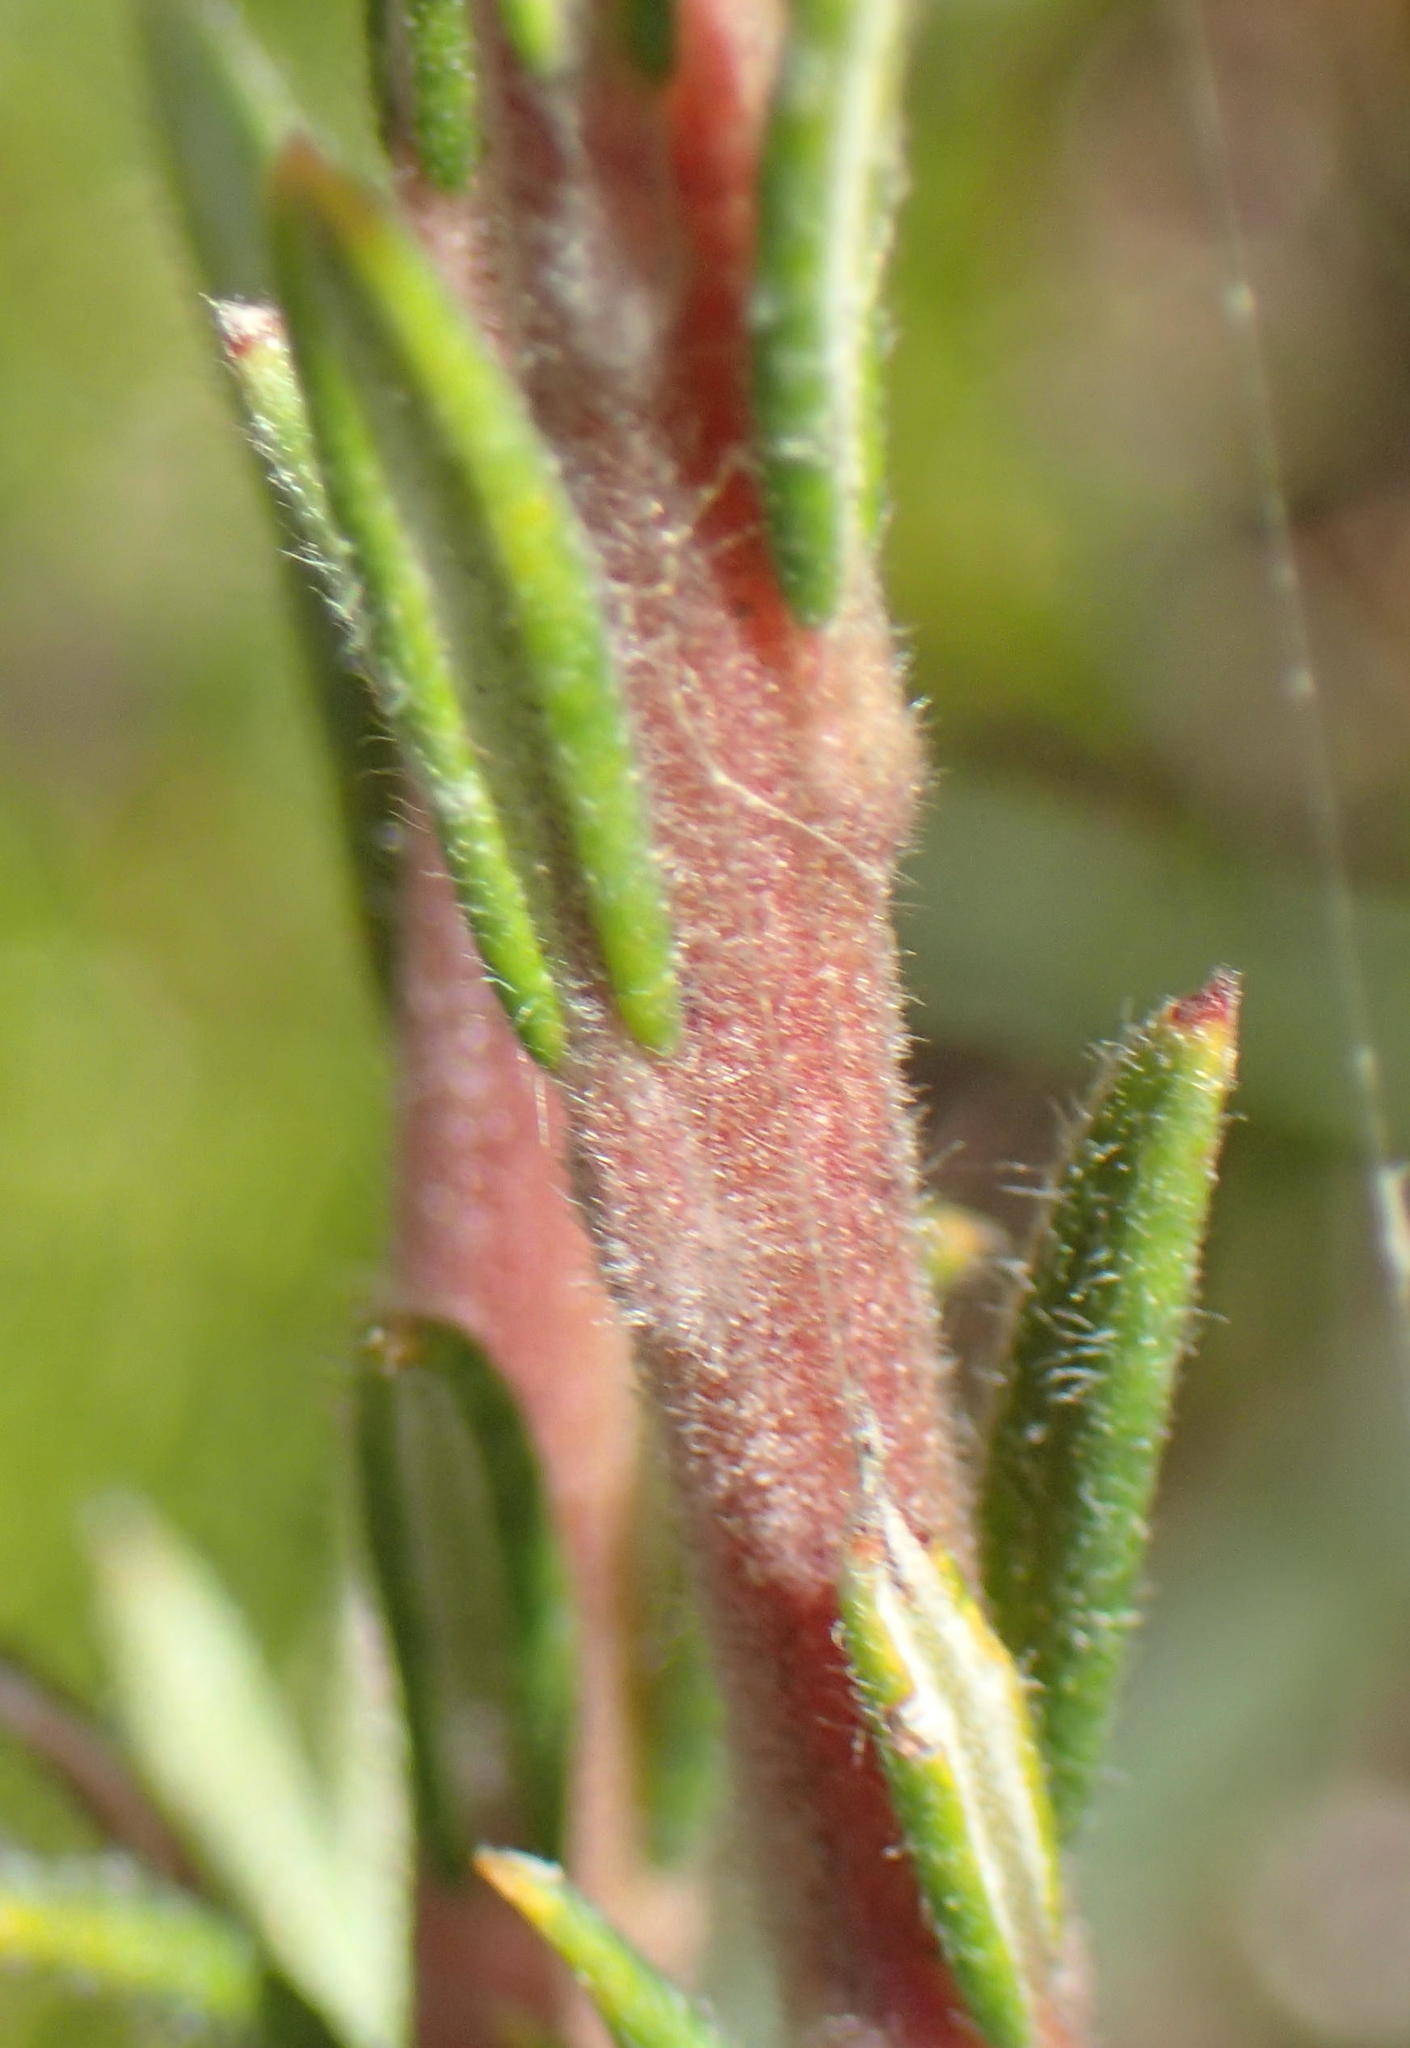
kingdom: Plantae
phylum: Tracheophyta
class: Magnoliopsida
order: Rosales
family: Rhamnaceae
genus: Phylica
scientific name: Phylica imberbis
